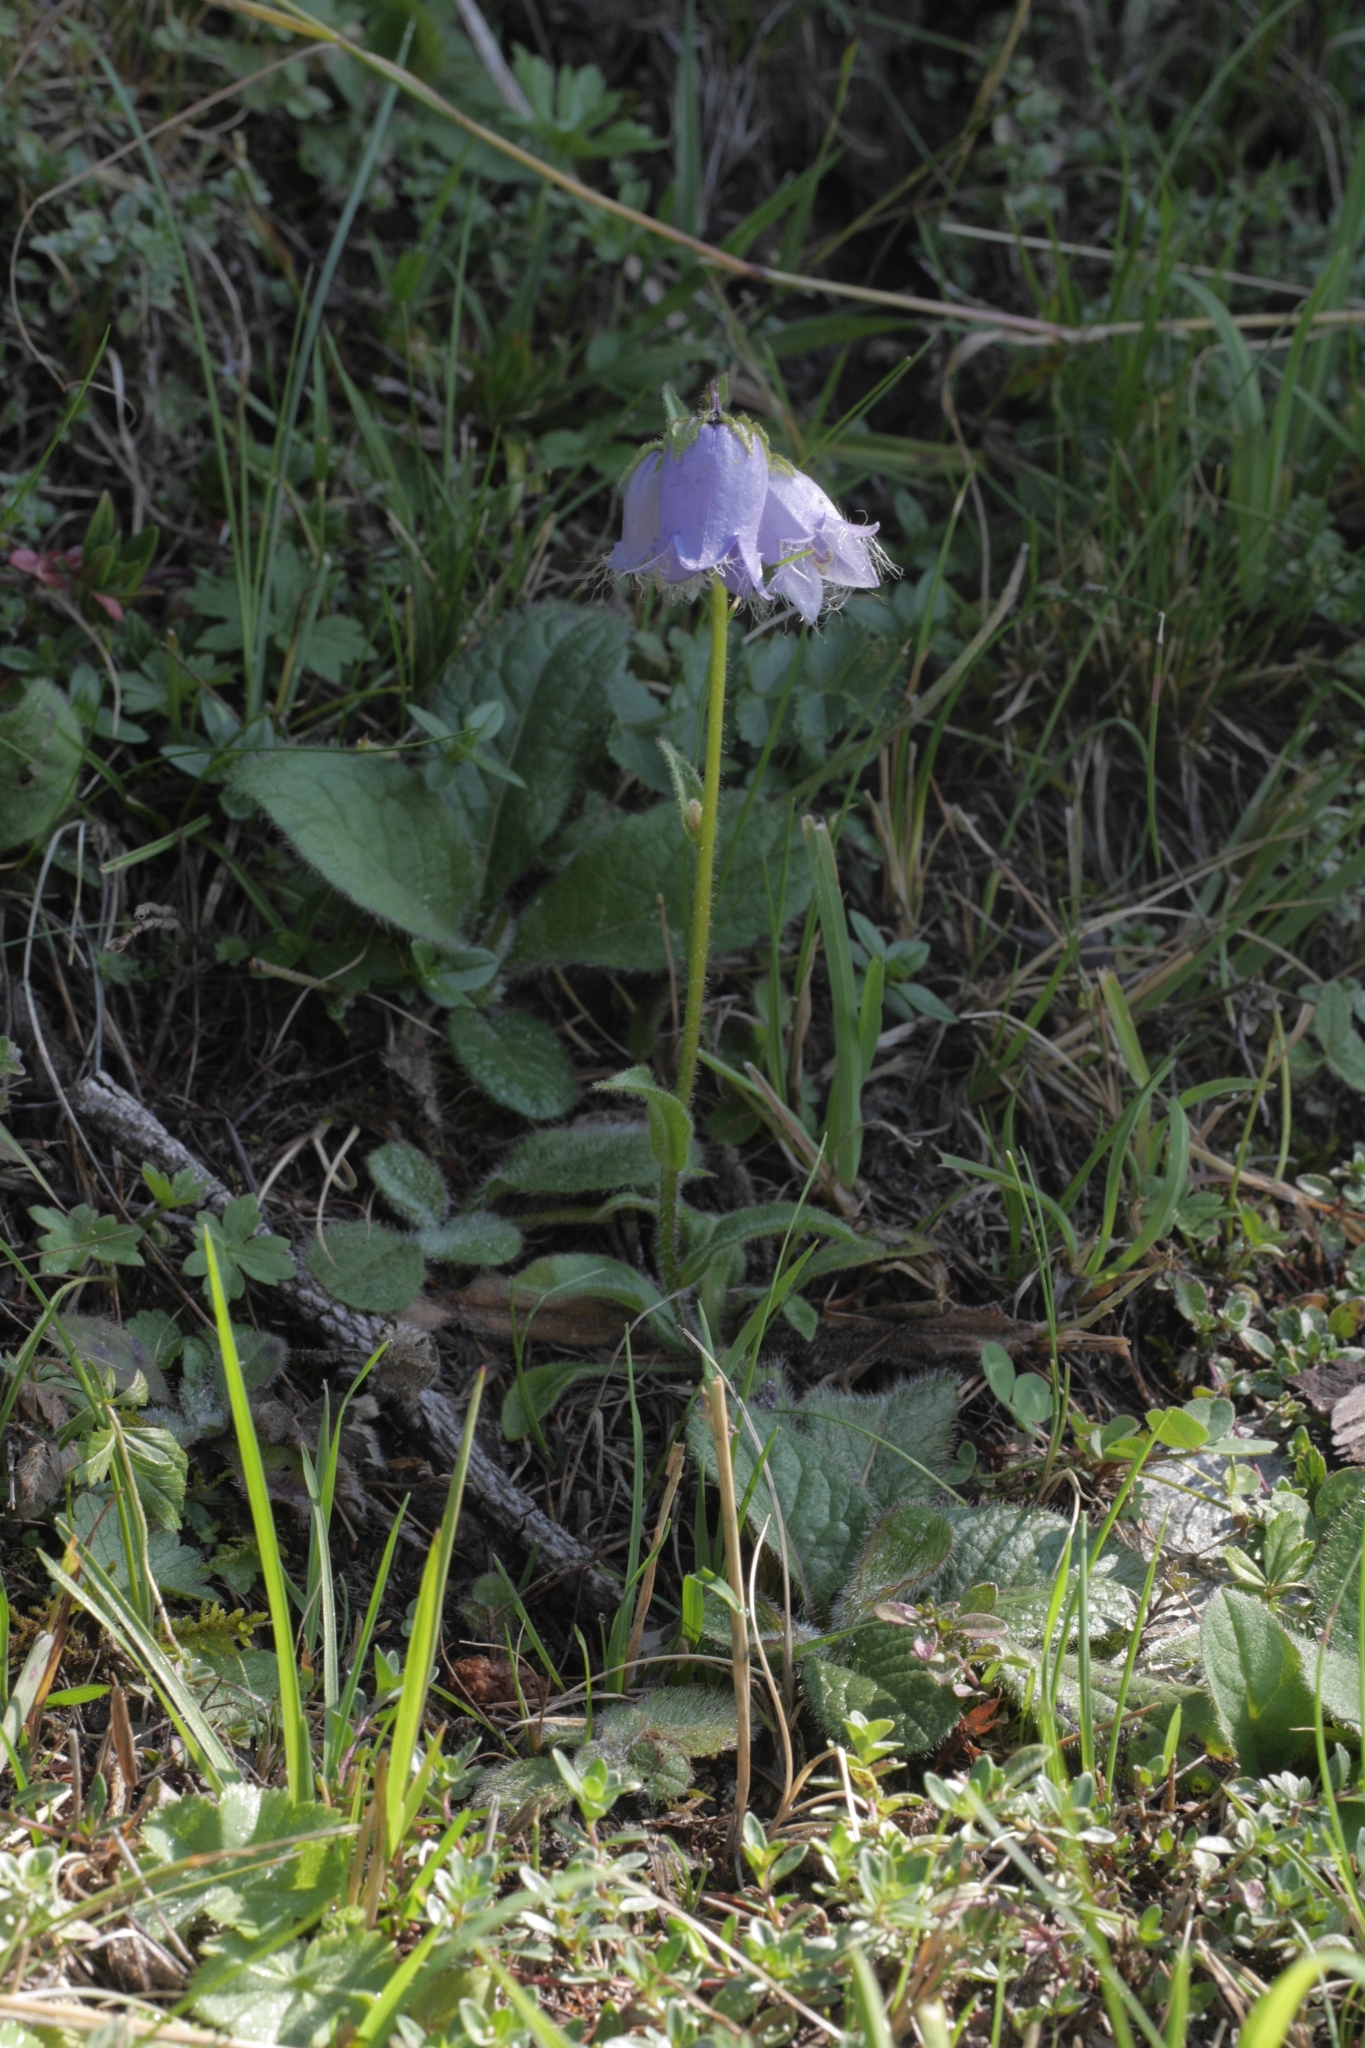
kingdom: Plantae
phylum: Tracheophyta
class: Magnoliopsida
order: Asterales
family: Campanulaceae
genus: Campanula
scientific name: Campanula barbata
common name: Bearded bellflower
